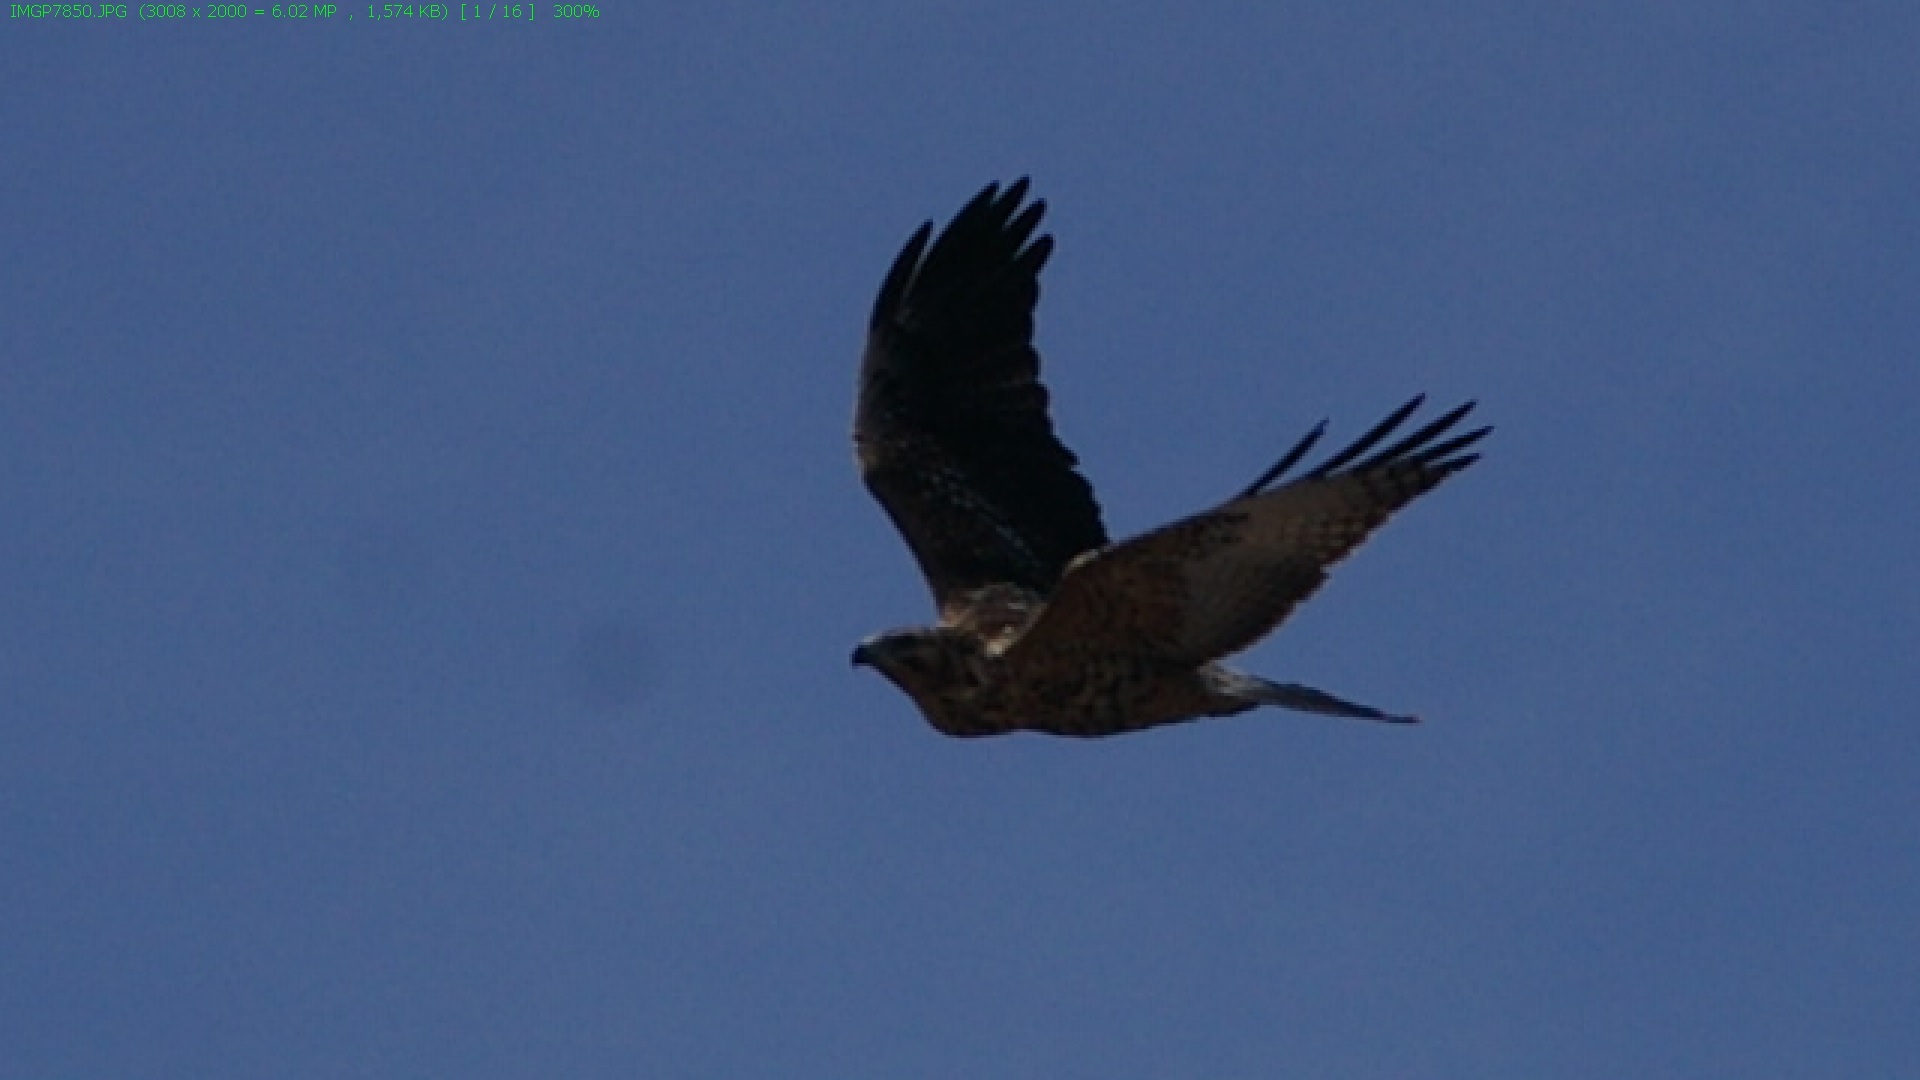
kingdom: Animalia
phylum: Chordata
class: Aves
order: Accipitriformes
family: Accipitridae
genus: Buteo
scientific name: Buteo galapagoensis
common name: Galapagos hawk
